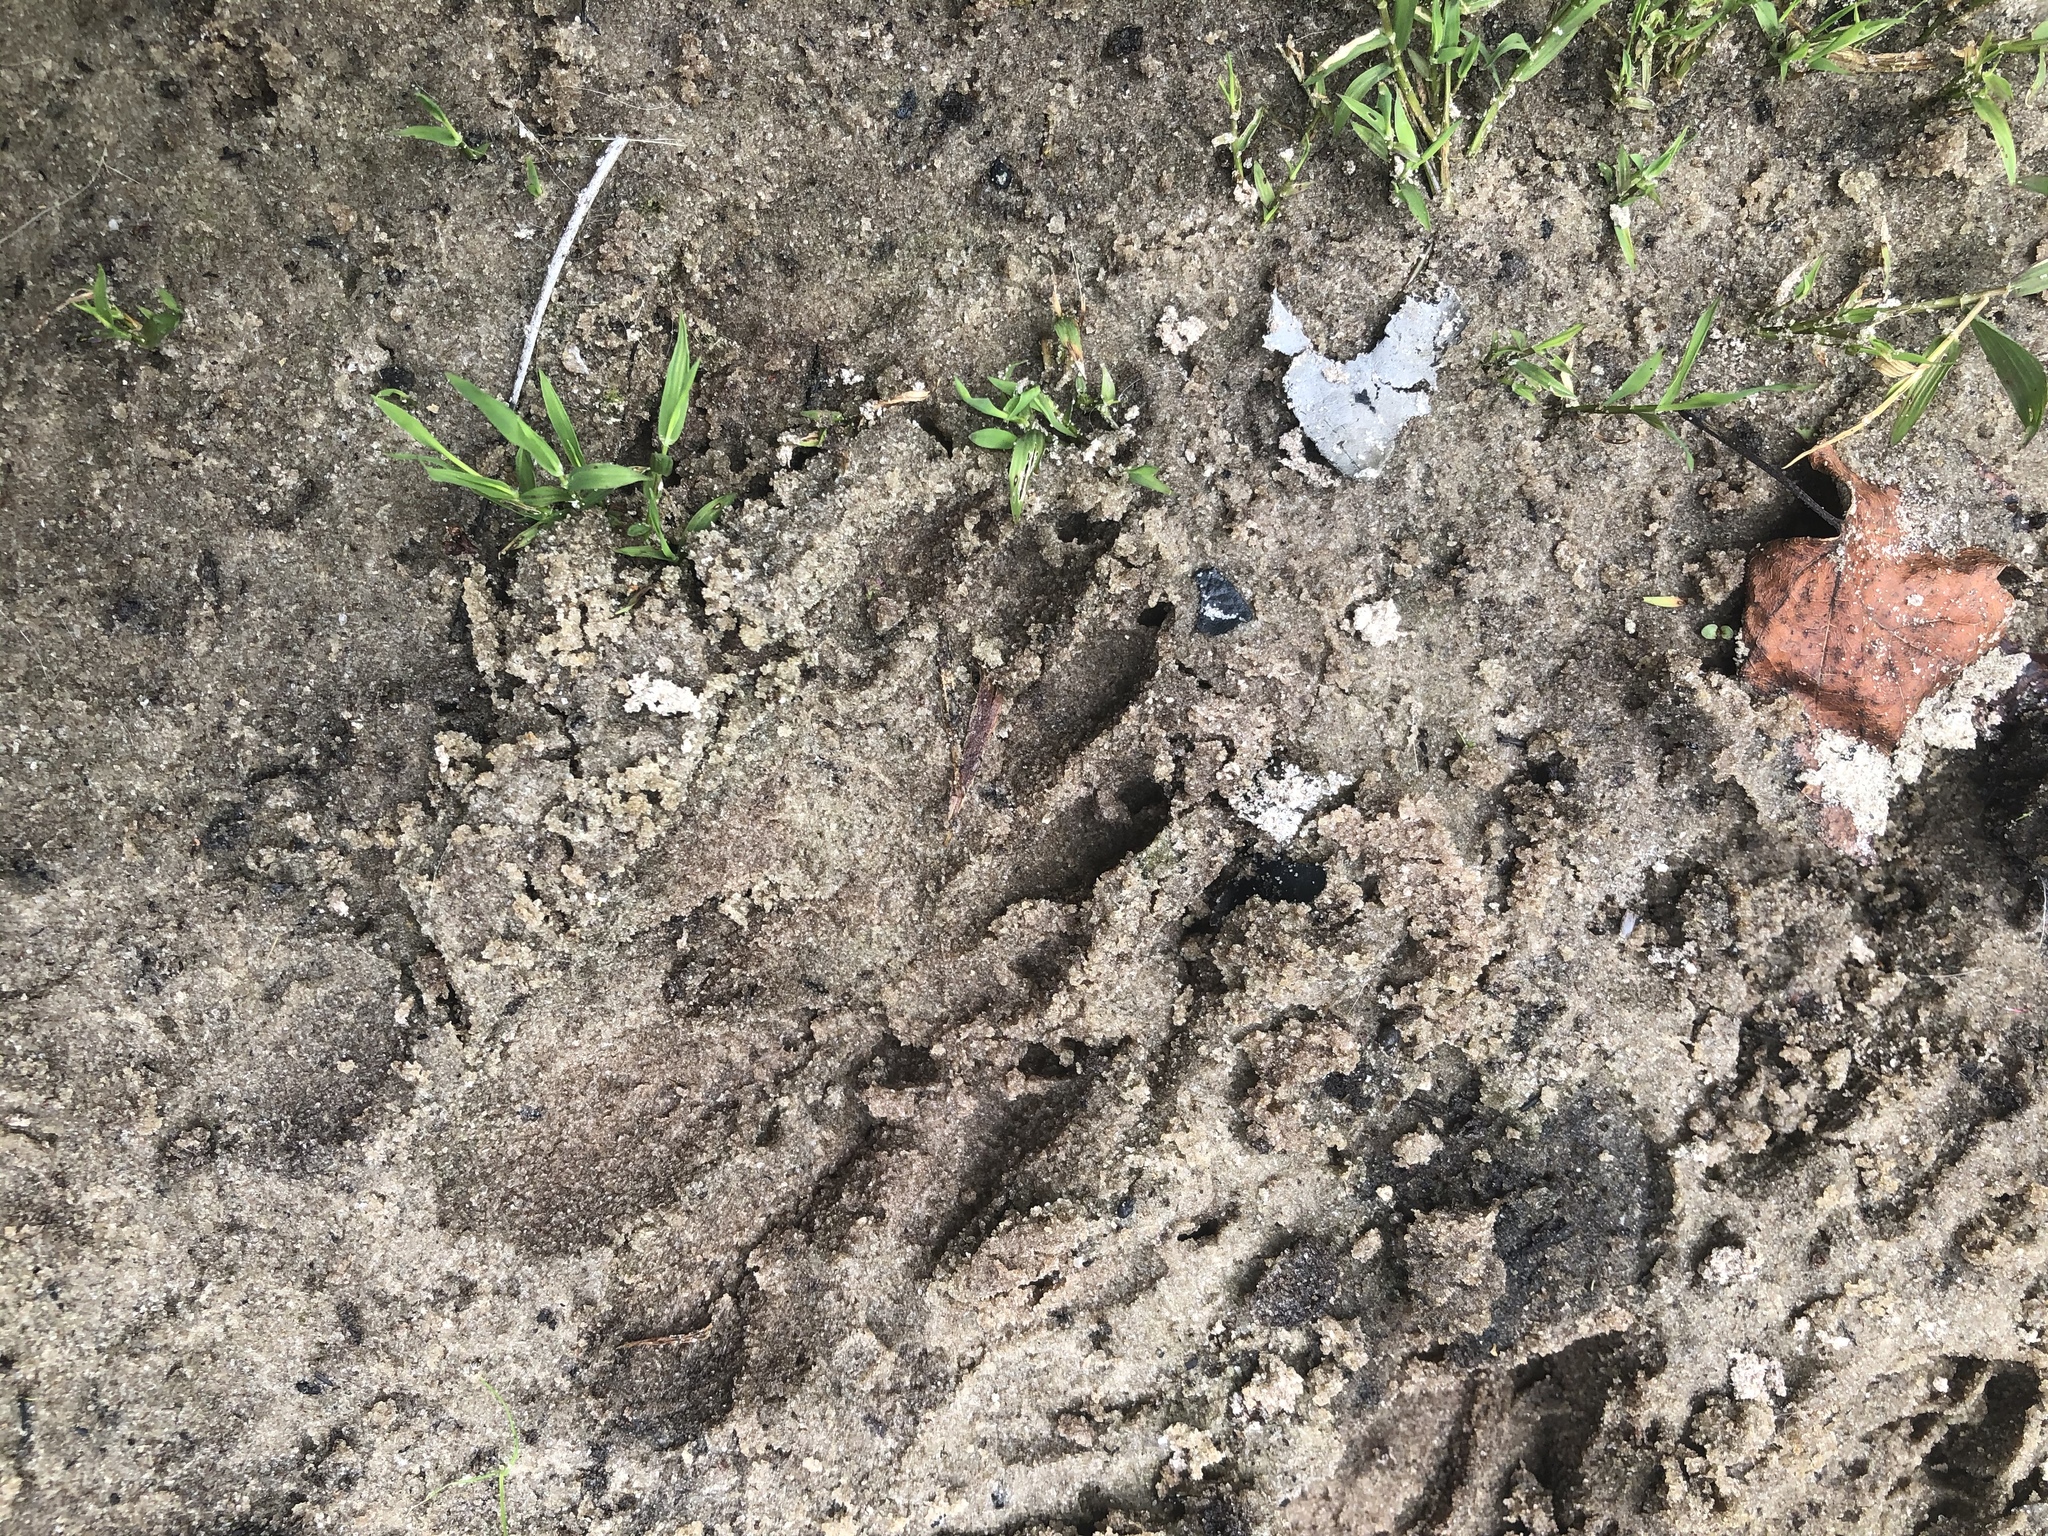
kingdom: Animalia
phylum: Chordata
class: Mammalia
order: Carnivora
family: Procyonidae
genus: Procyon
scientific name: Procyon lotor
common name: Raccoon
